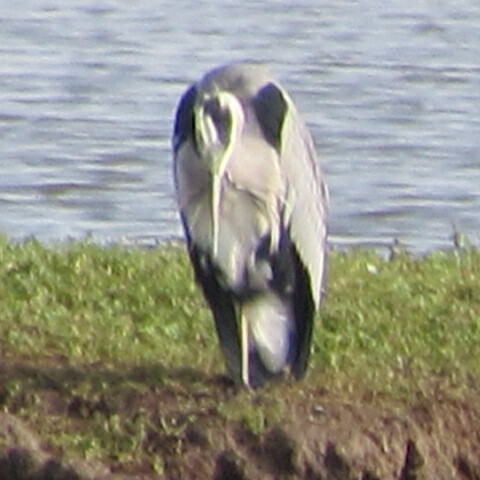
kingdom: Animalia
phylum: Chordata
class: Aves
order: Pelecaniformes
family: Ardeidae
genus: Ardea
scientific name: Ardea cinerea
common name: Grey heron
